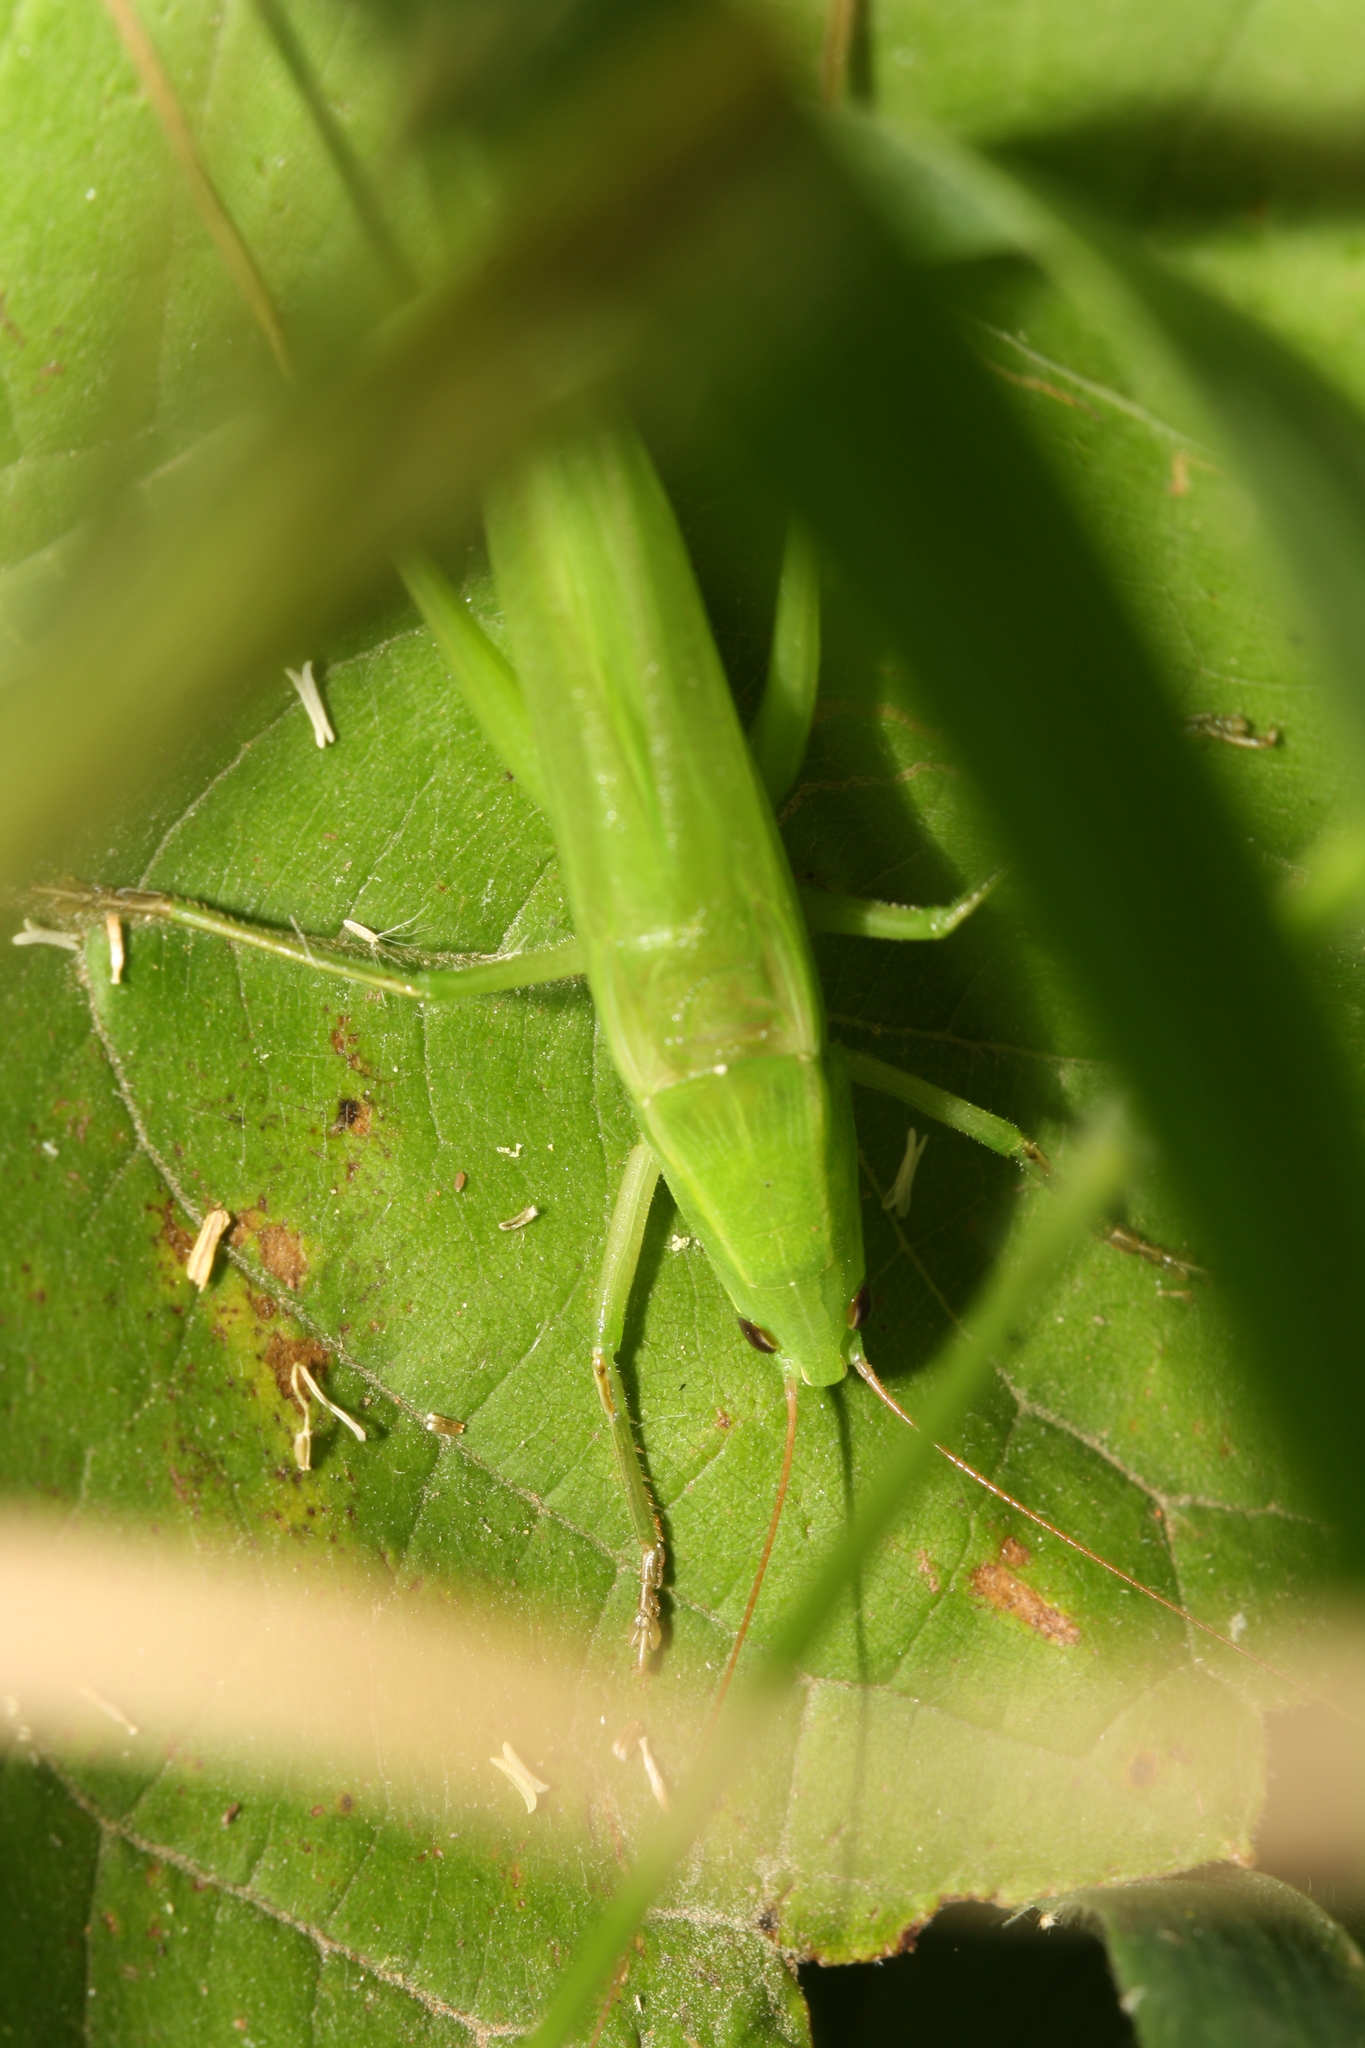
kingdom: Animalia
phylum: Arthropoda
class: Insecta
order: Orthoptera
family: Tettigoniidae
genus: Ruspolia
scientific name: Ruspolia nitidula
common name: Large conehead
